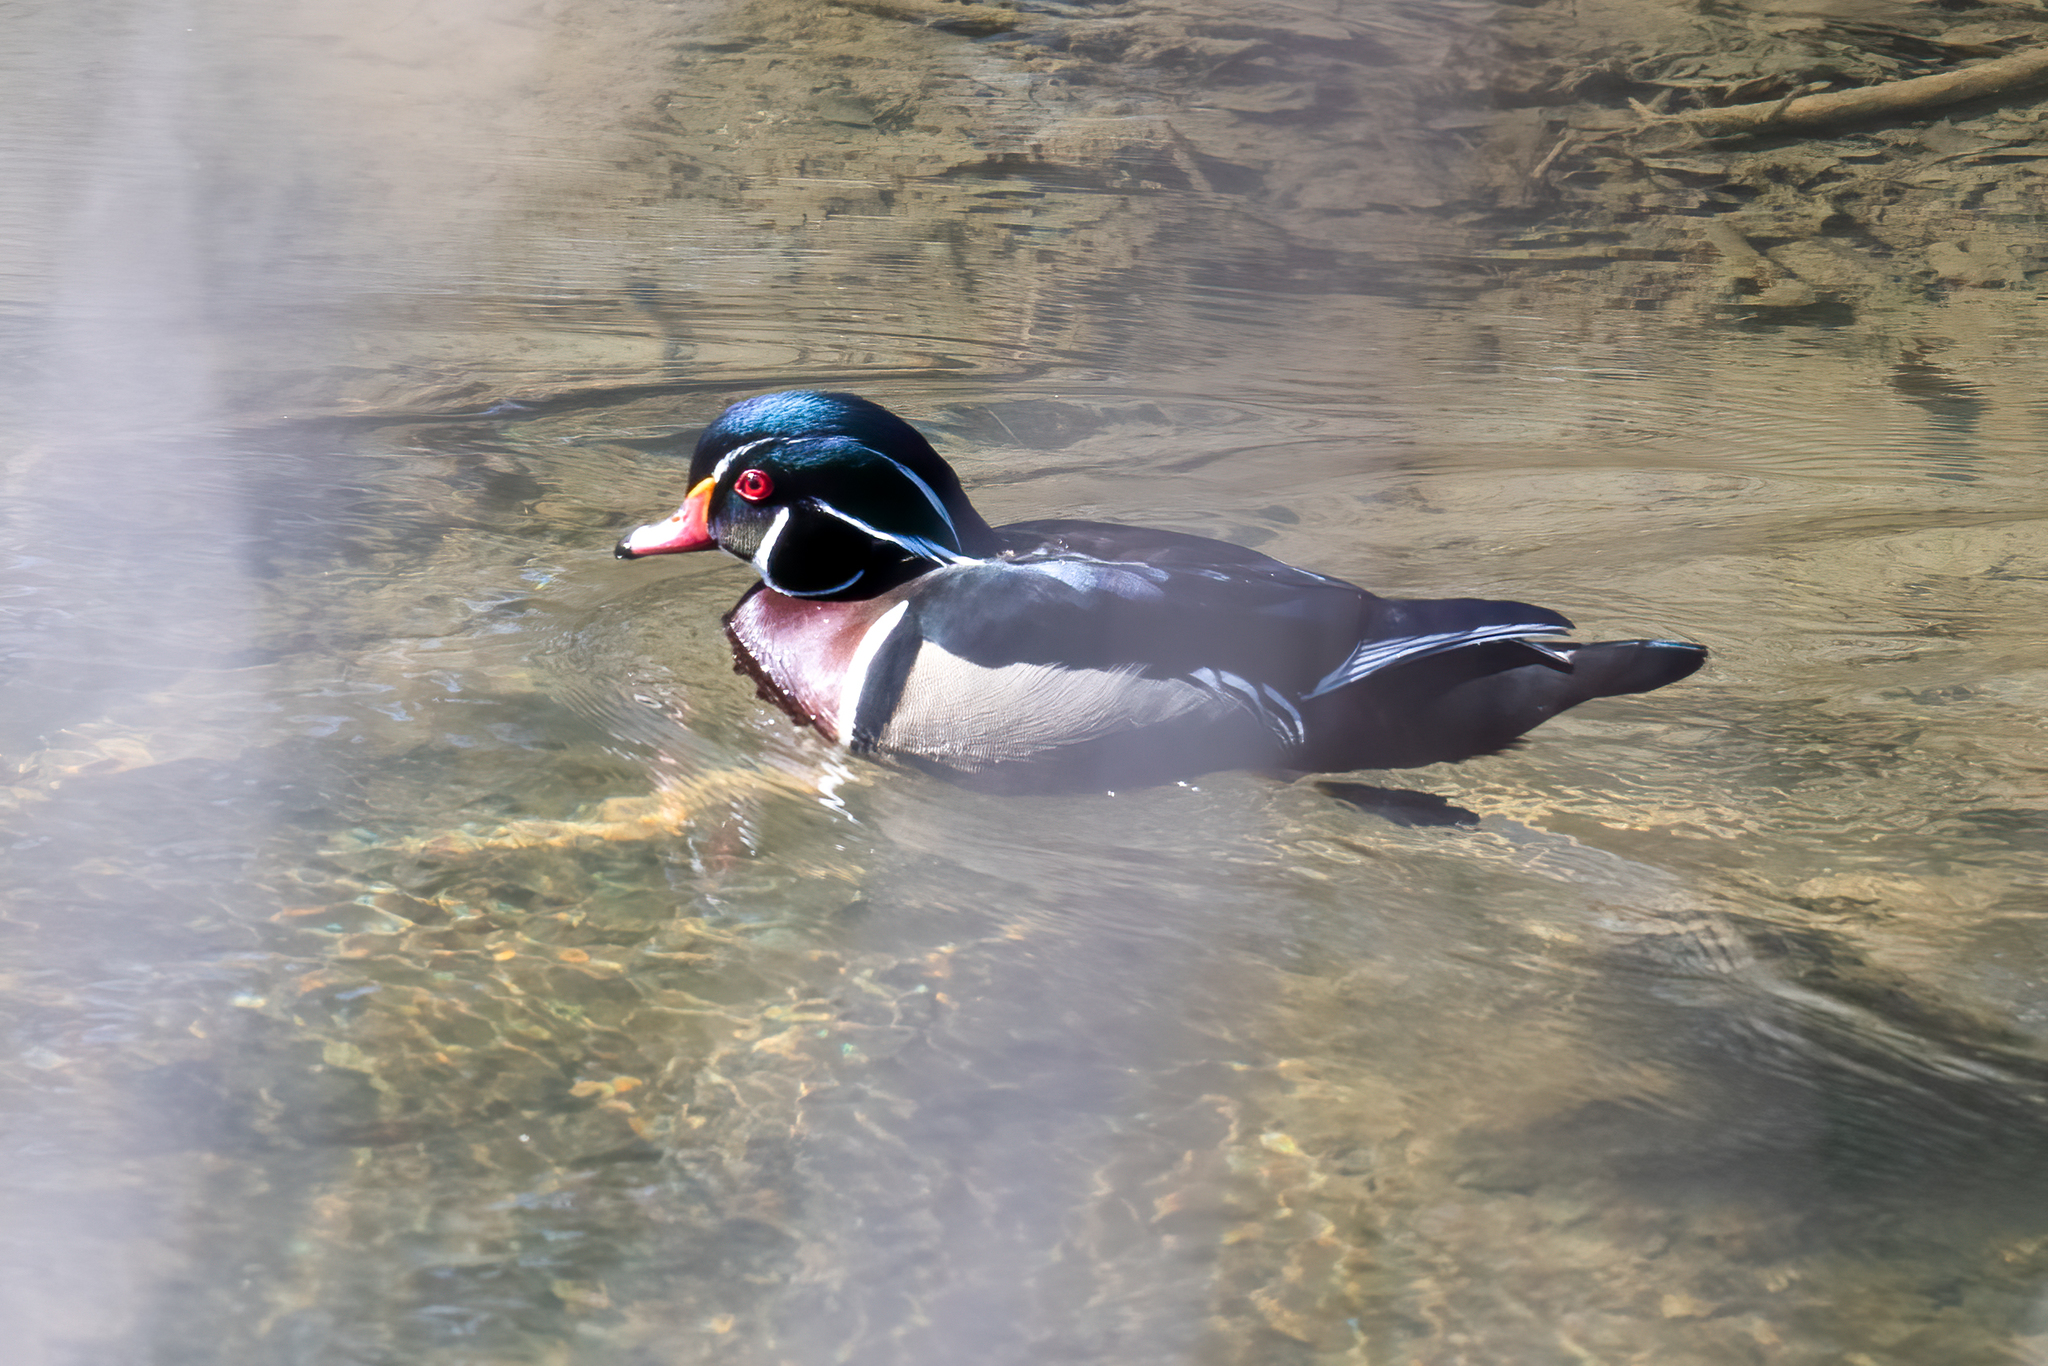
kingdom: Animalia
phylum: Chordata
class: Aves
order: Anseriformes
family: Anatidae
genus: Aix
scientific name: Aix sponsa
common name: Wood duck
